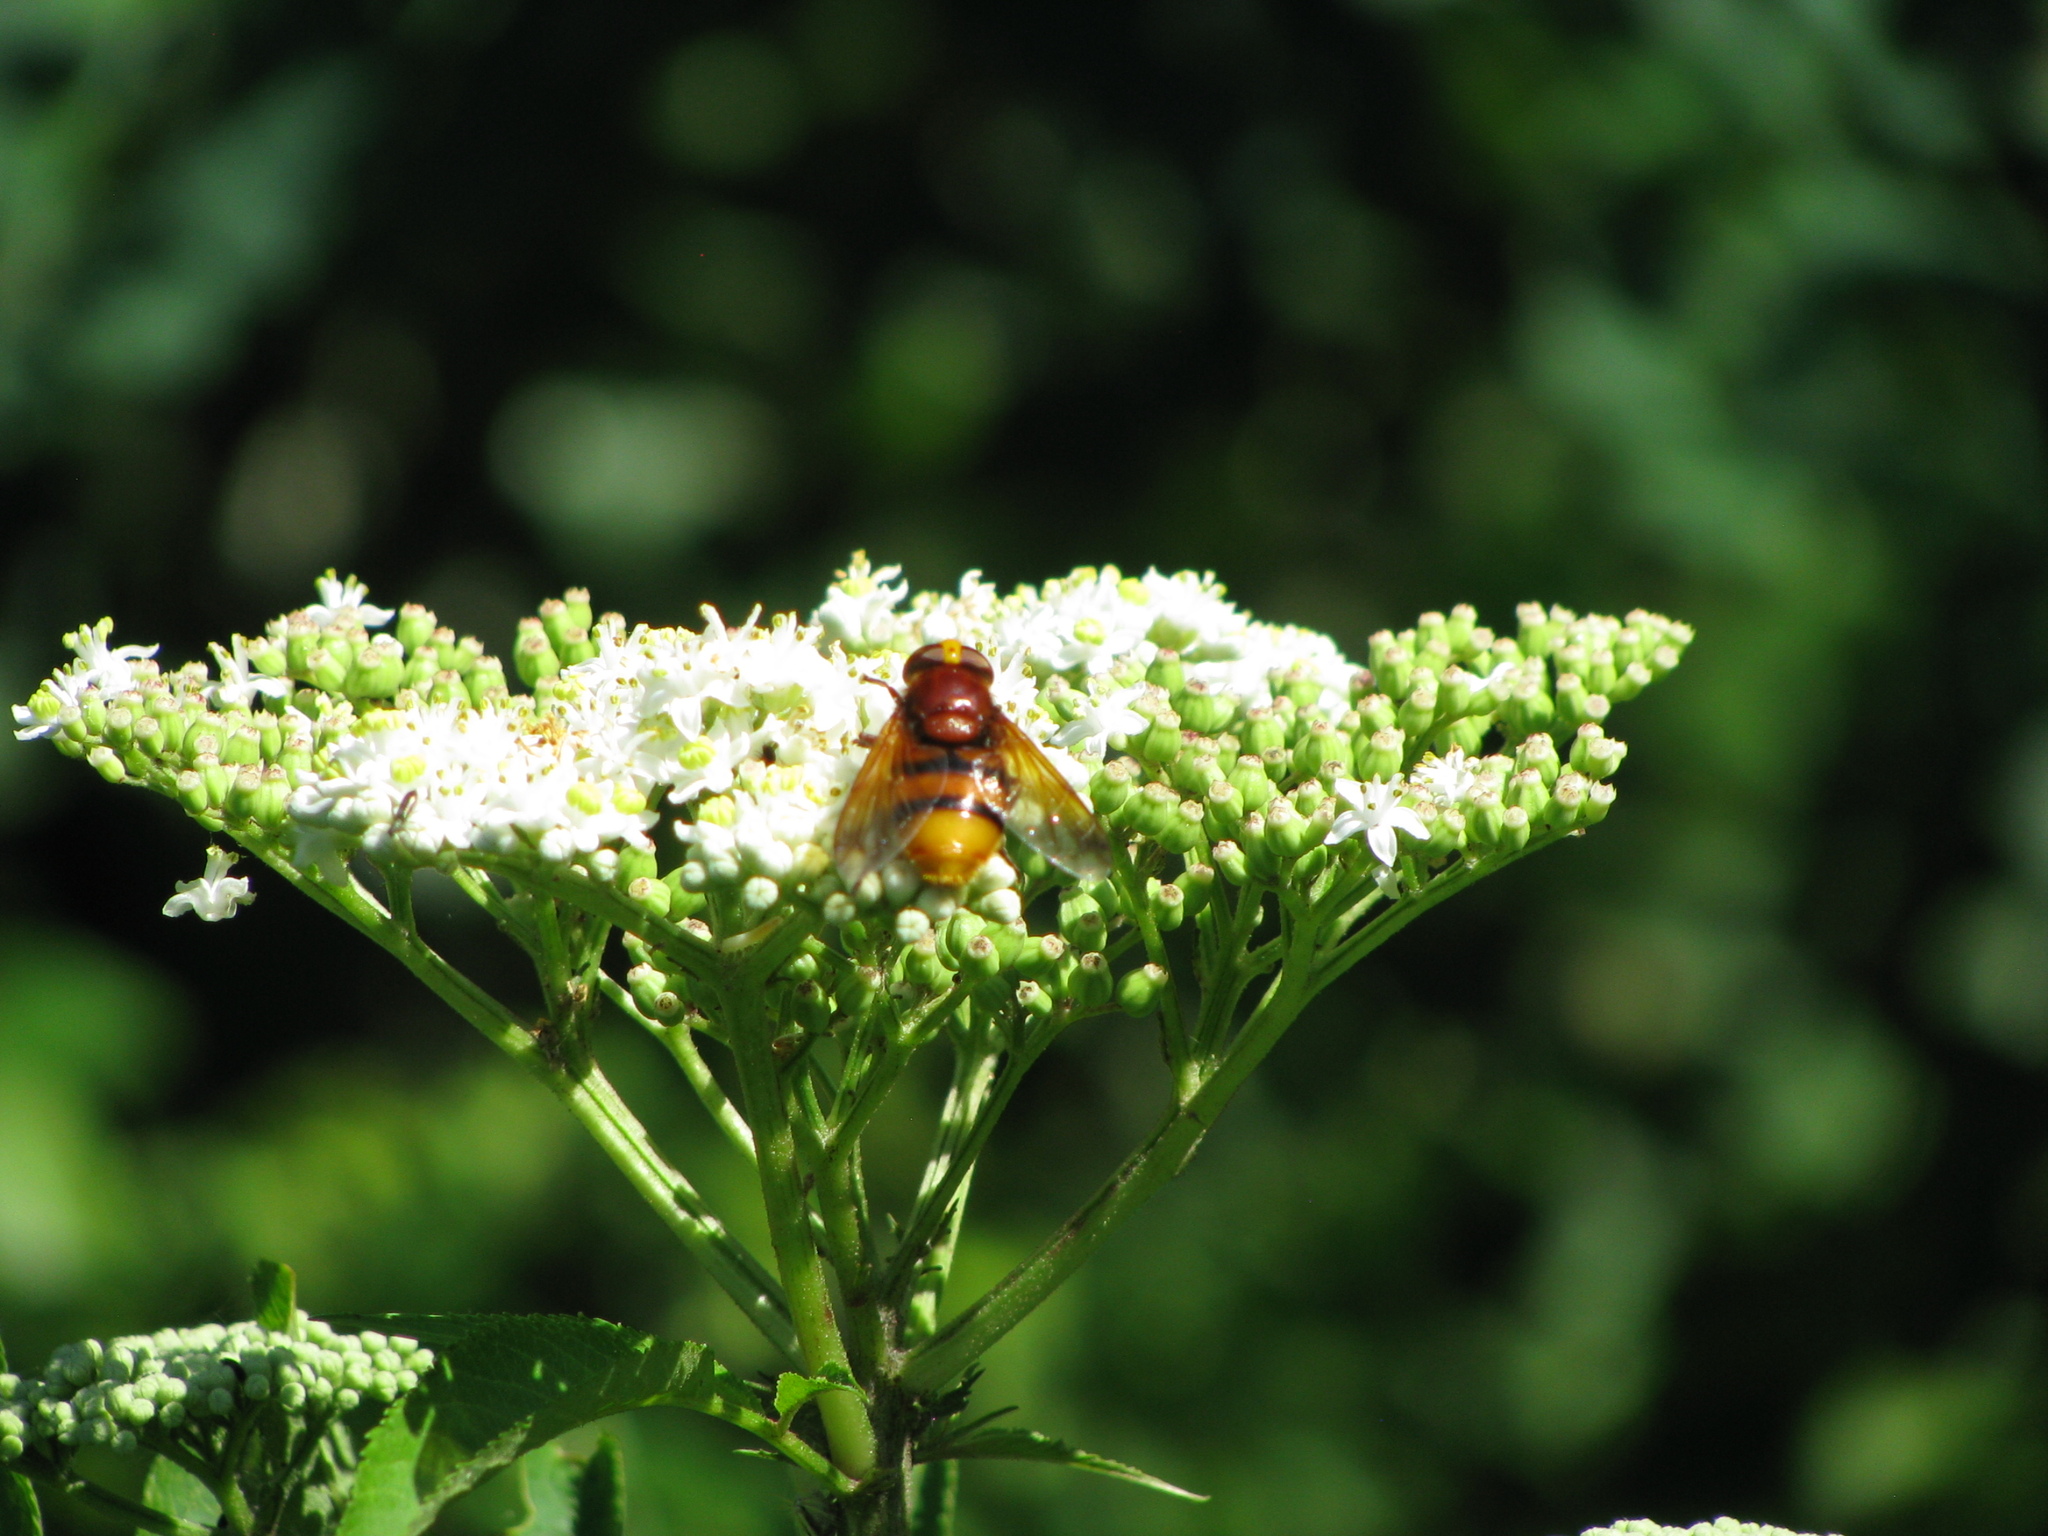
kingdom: Animalia
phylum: Arthropoda
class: Insecta
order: Diptera
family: Syrphidae
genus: Volucella
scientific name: Volucella zonaria
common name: Hornet hoverfly
